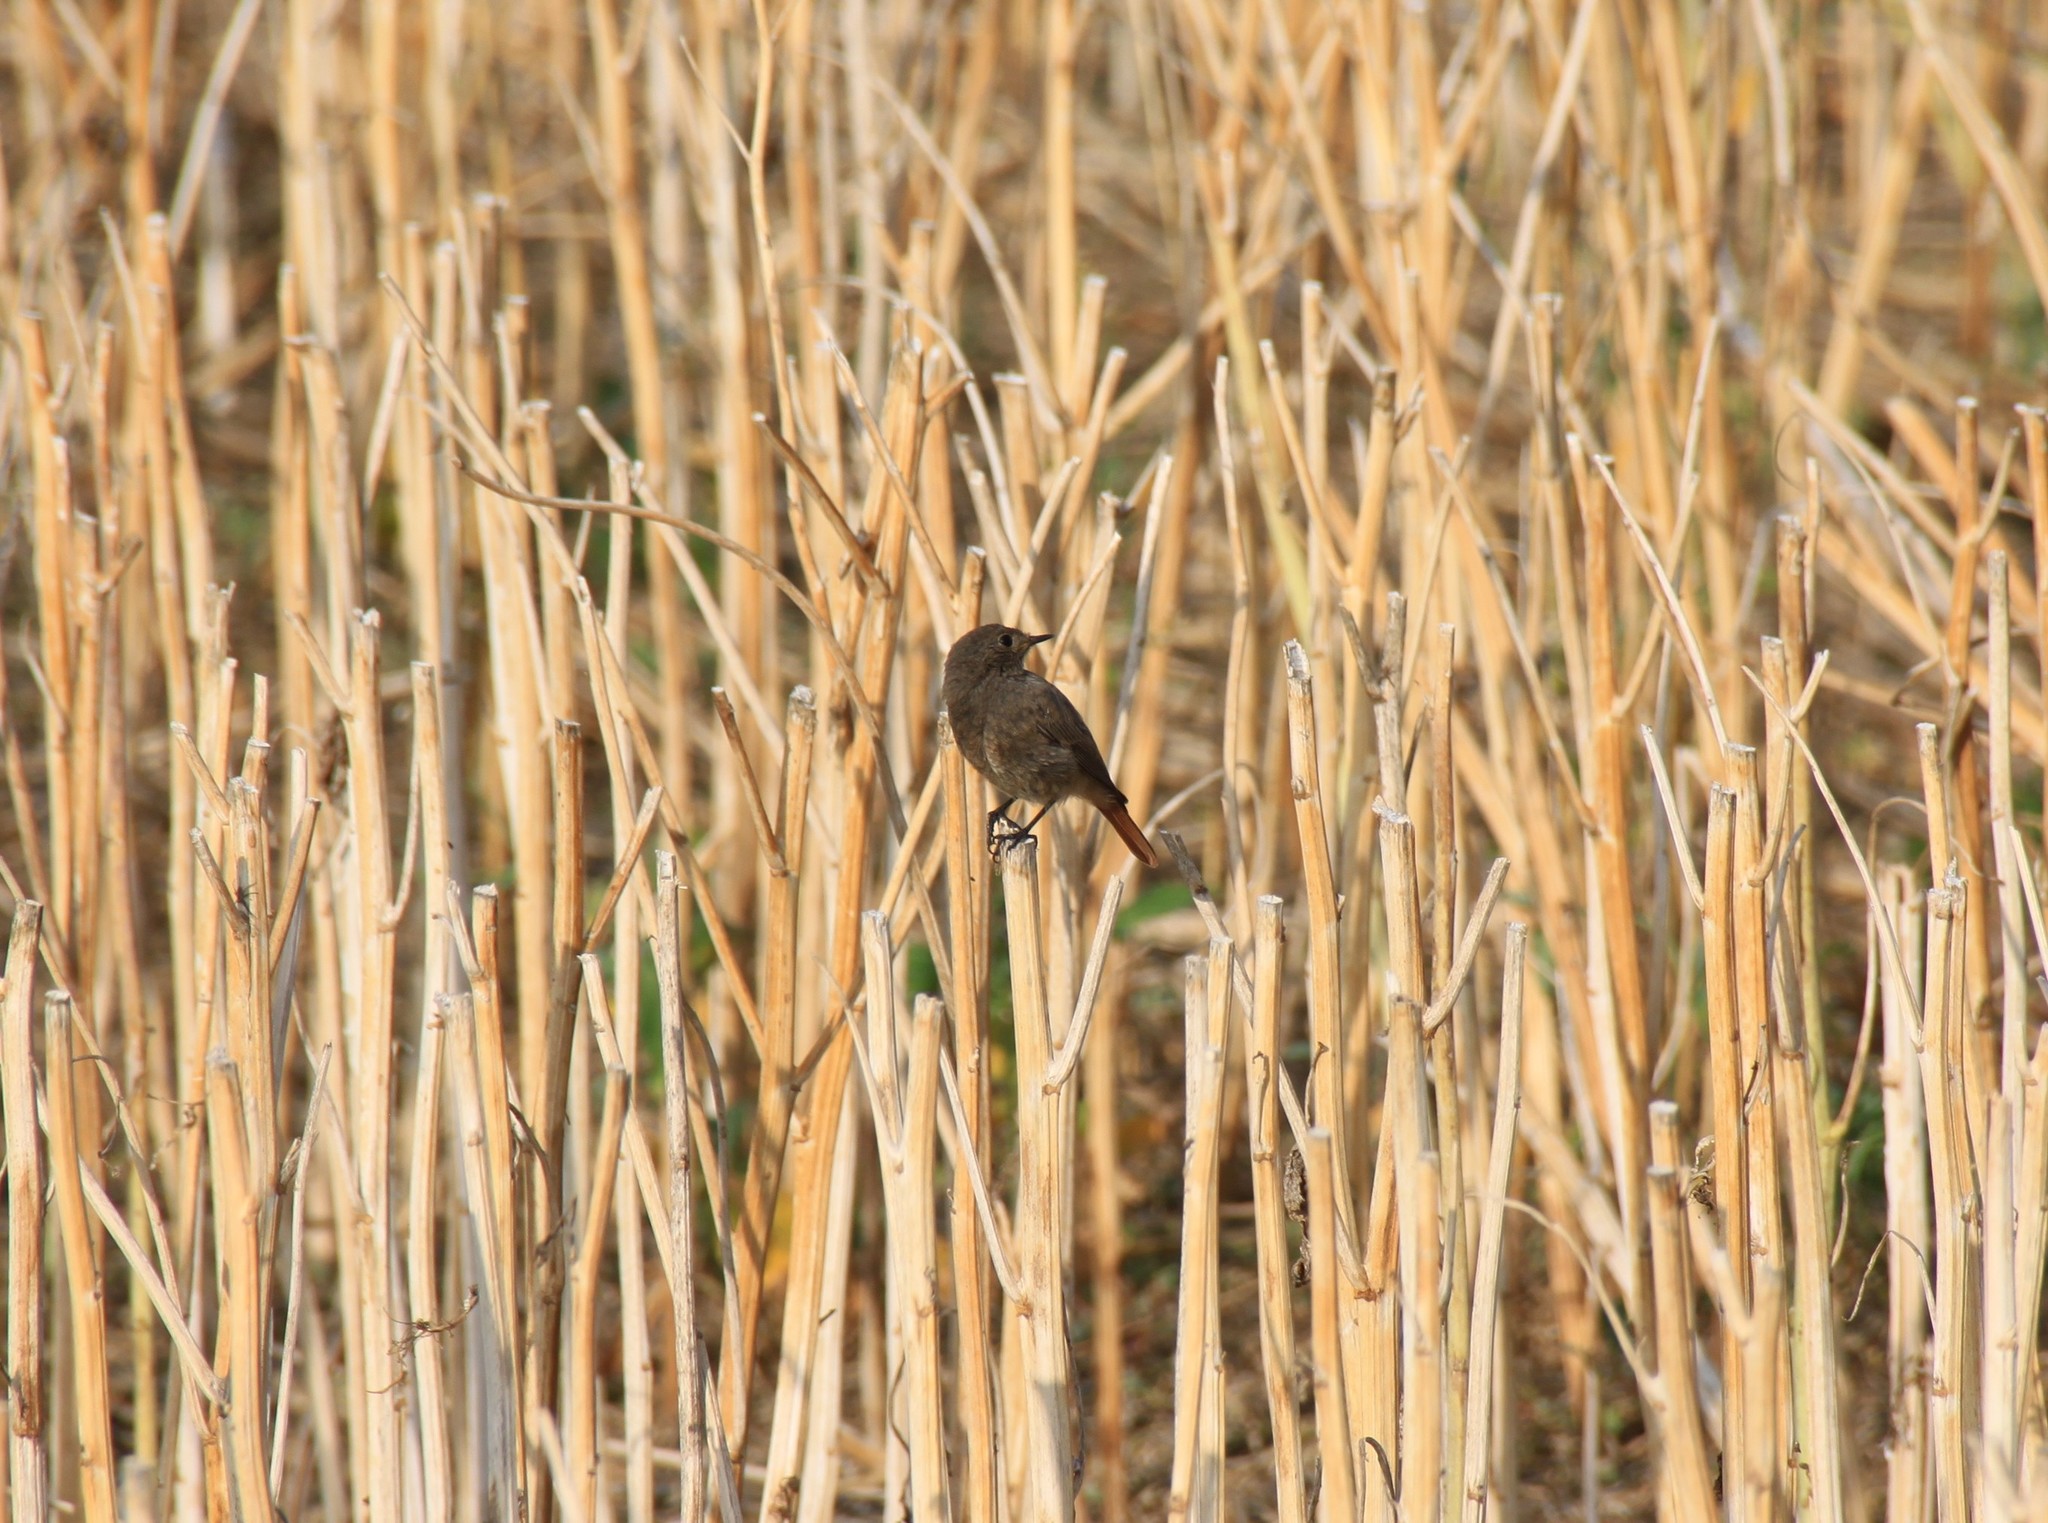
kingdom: Animalia
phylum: Chordata
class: Aves
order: Passeriformes
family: Muscicapidae
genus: Phoenicurus
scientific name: Phoenicurus ochruros
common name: Black redstart
